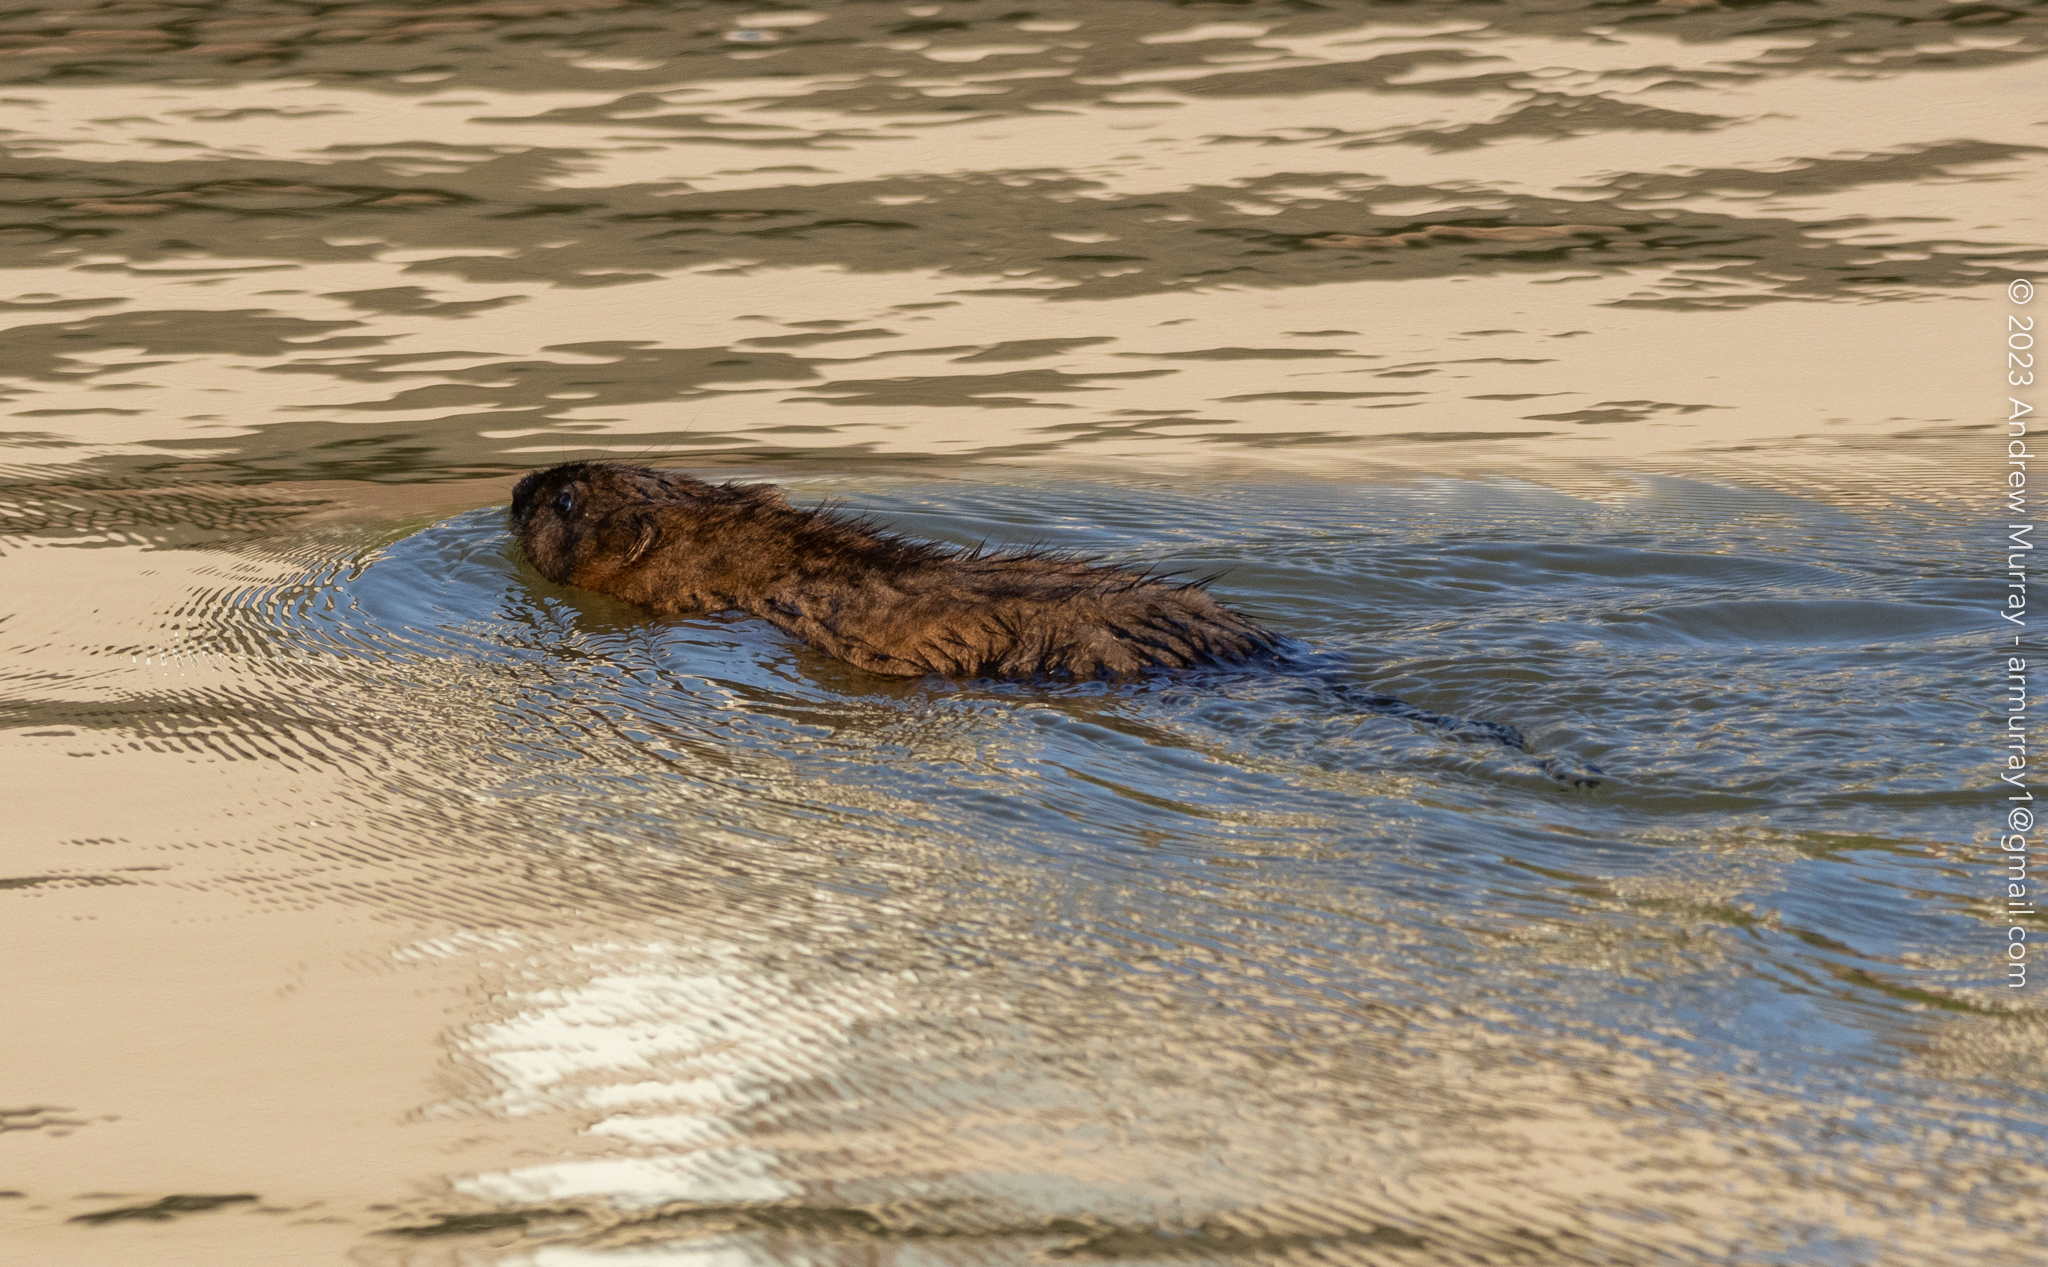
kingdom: Animalia
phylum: Chordata
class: Mammalia
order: Rodentia
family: Cricetidae
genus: Ondatra
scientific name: Ondatra zibethicus
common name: Muskrat
